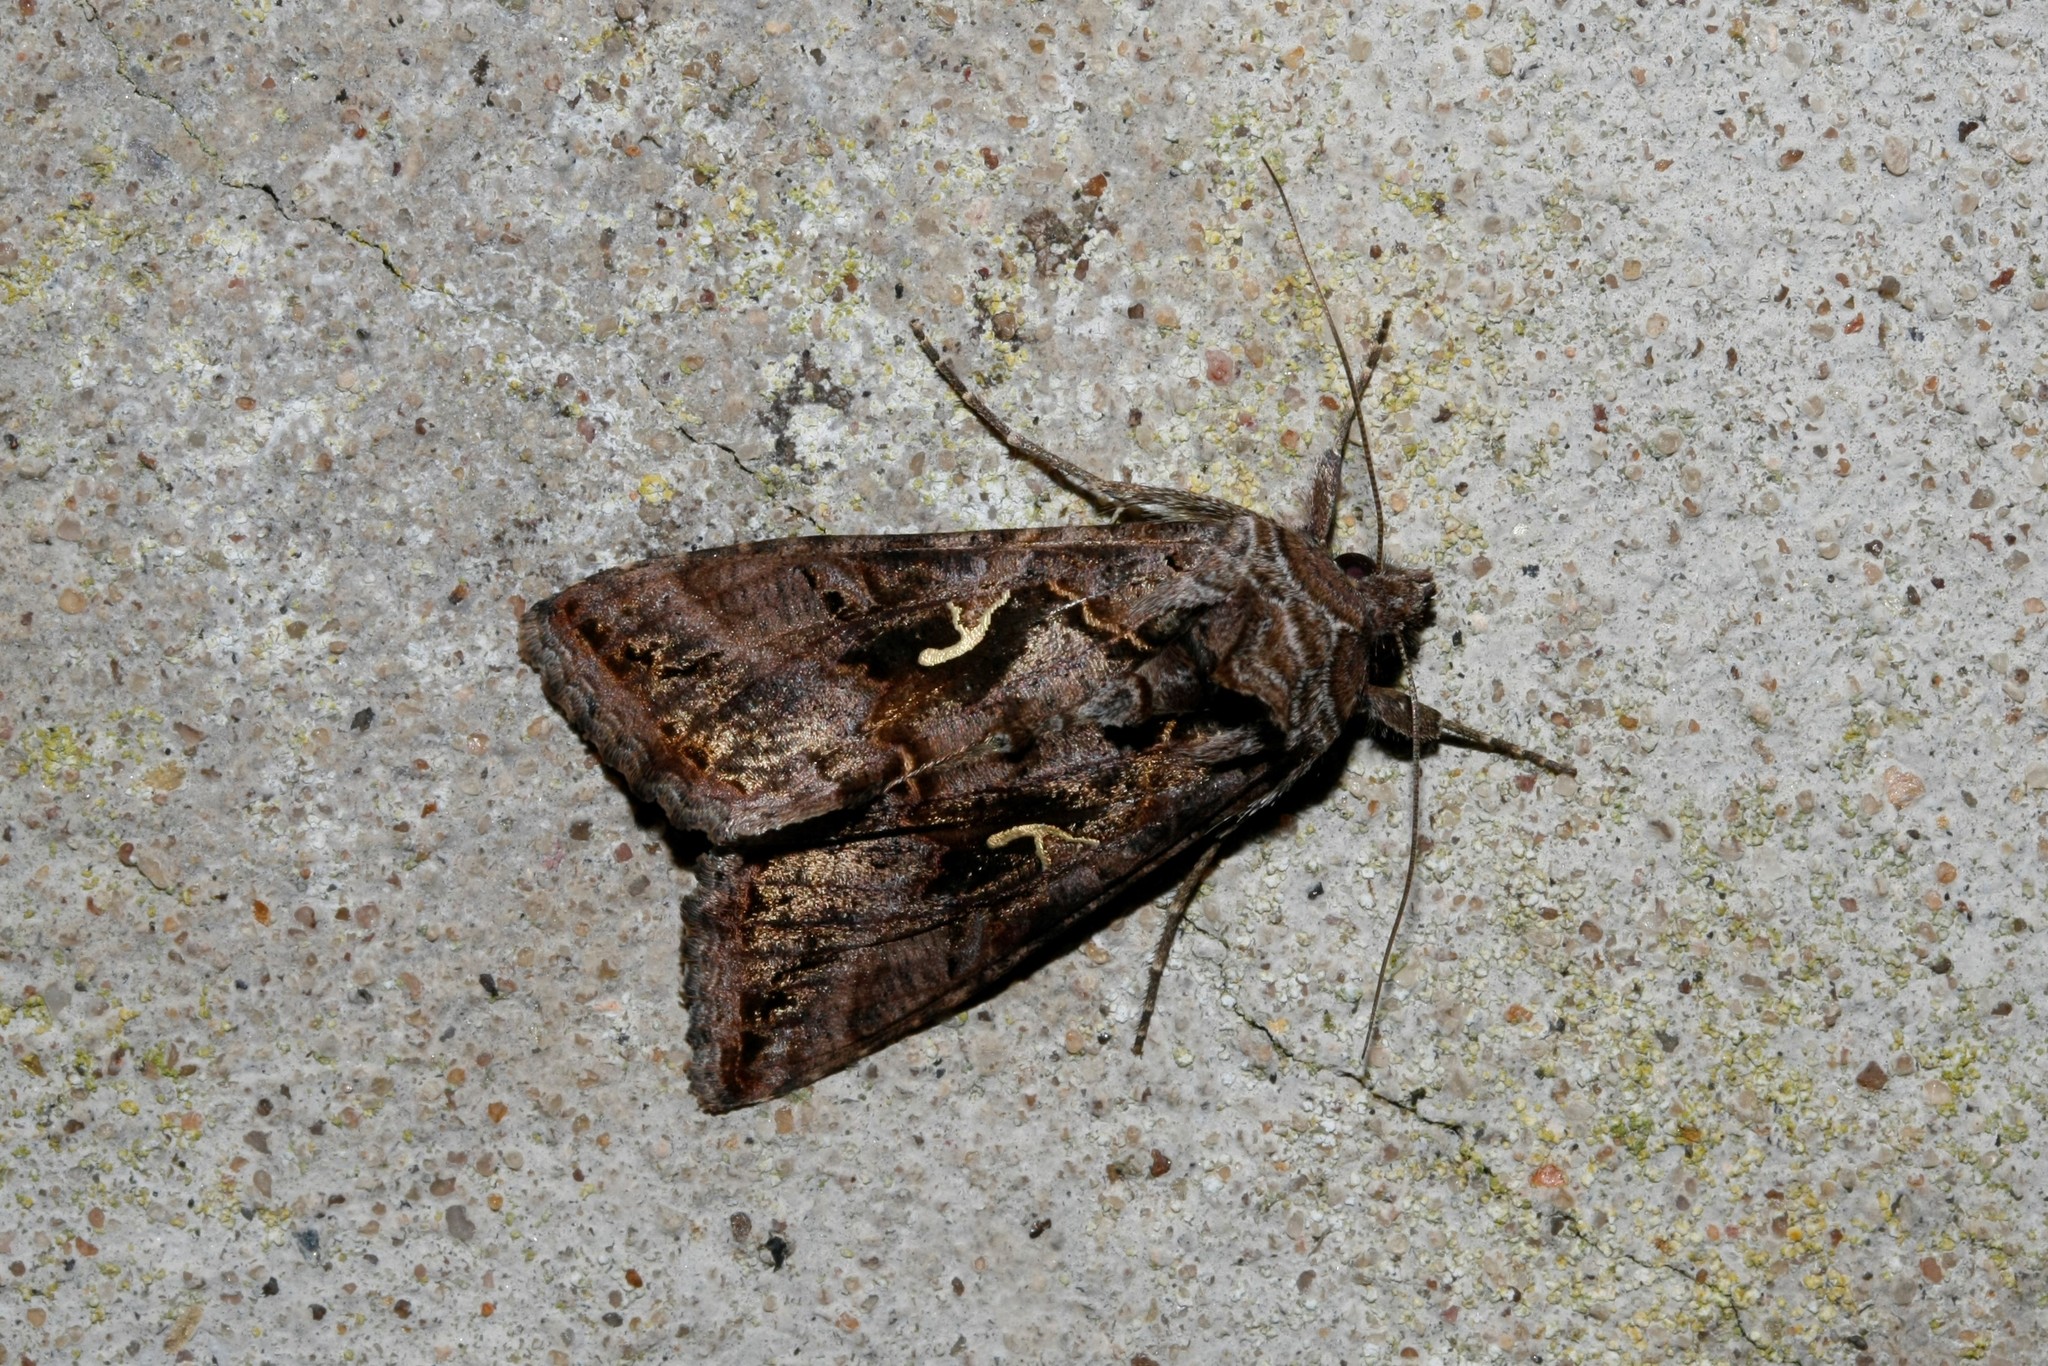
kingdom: Animalia
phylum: Arthropoda
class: Insecta
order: Lepidoptera
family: Noctuidae
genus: Autographa
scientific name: Autographa gamma
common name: Silver y
